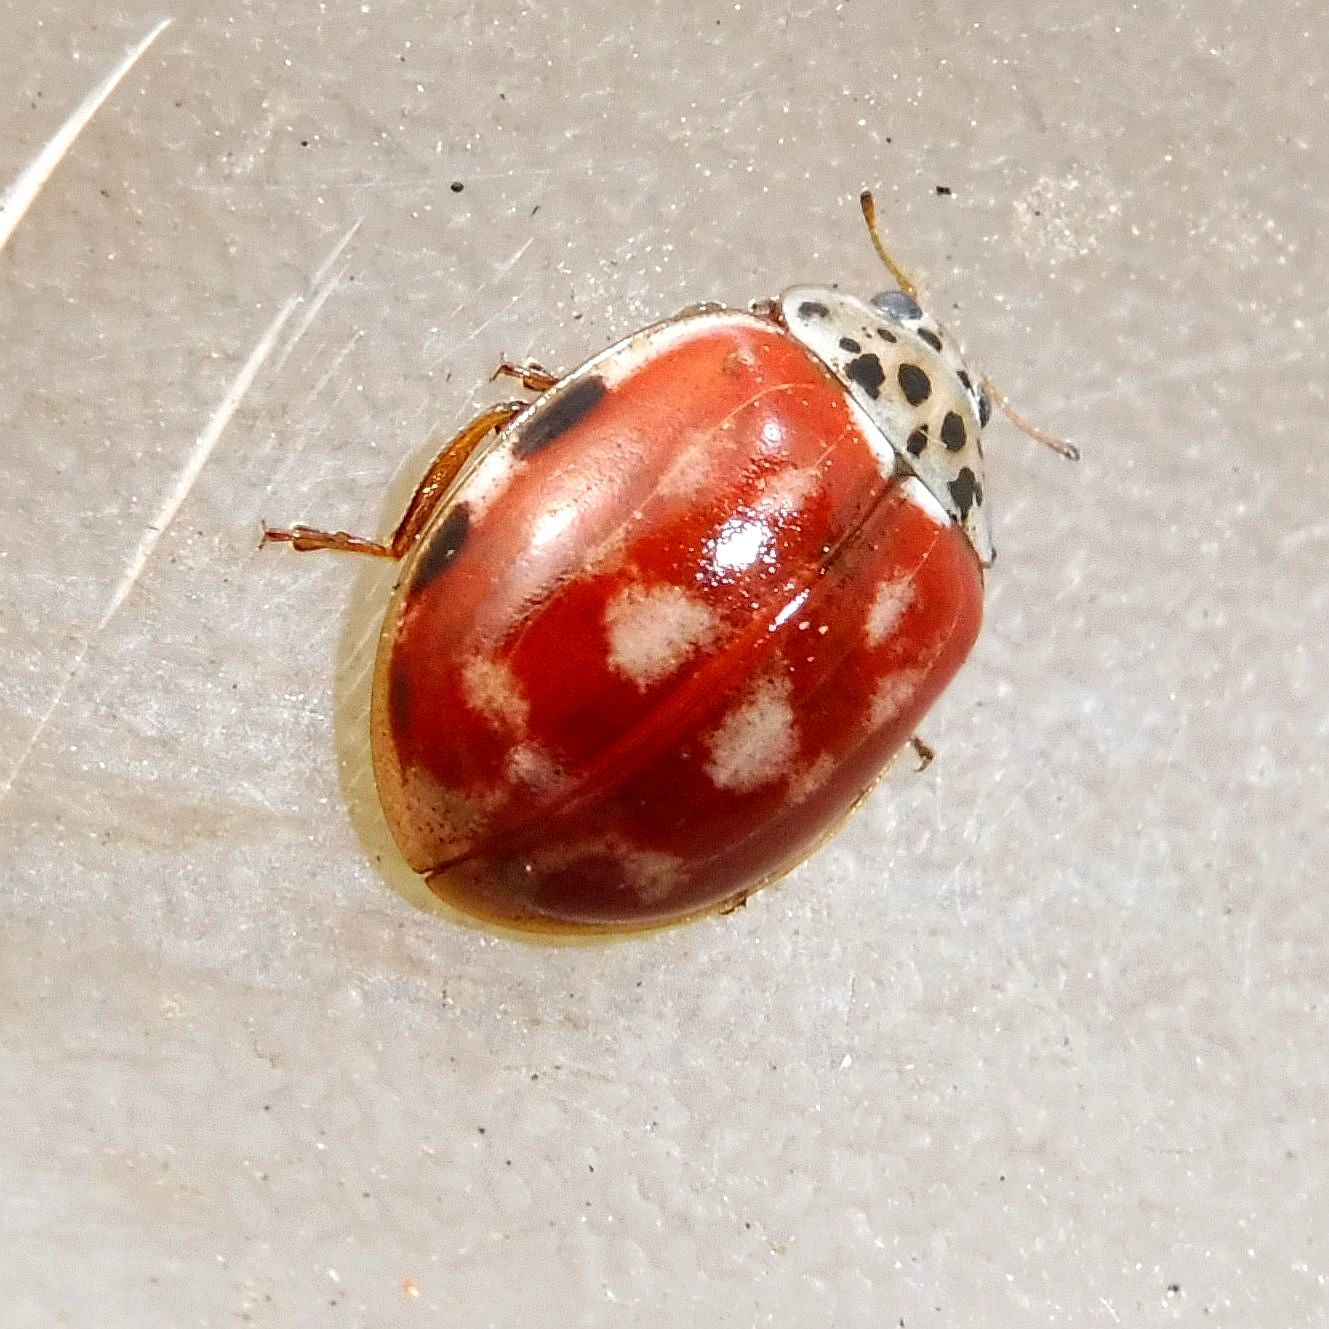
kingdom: Animalia
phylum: Arthropoda
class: Insecta
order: Coleoptera
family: Coccinellidae
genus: Harmonia
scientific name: Harmonia quadripunctata
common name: Cream-streaked ladybird
